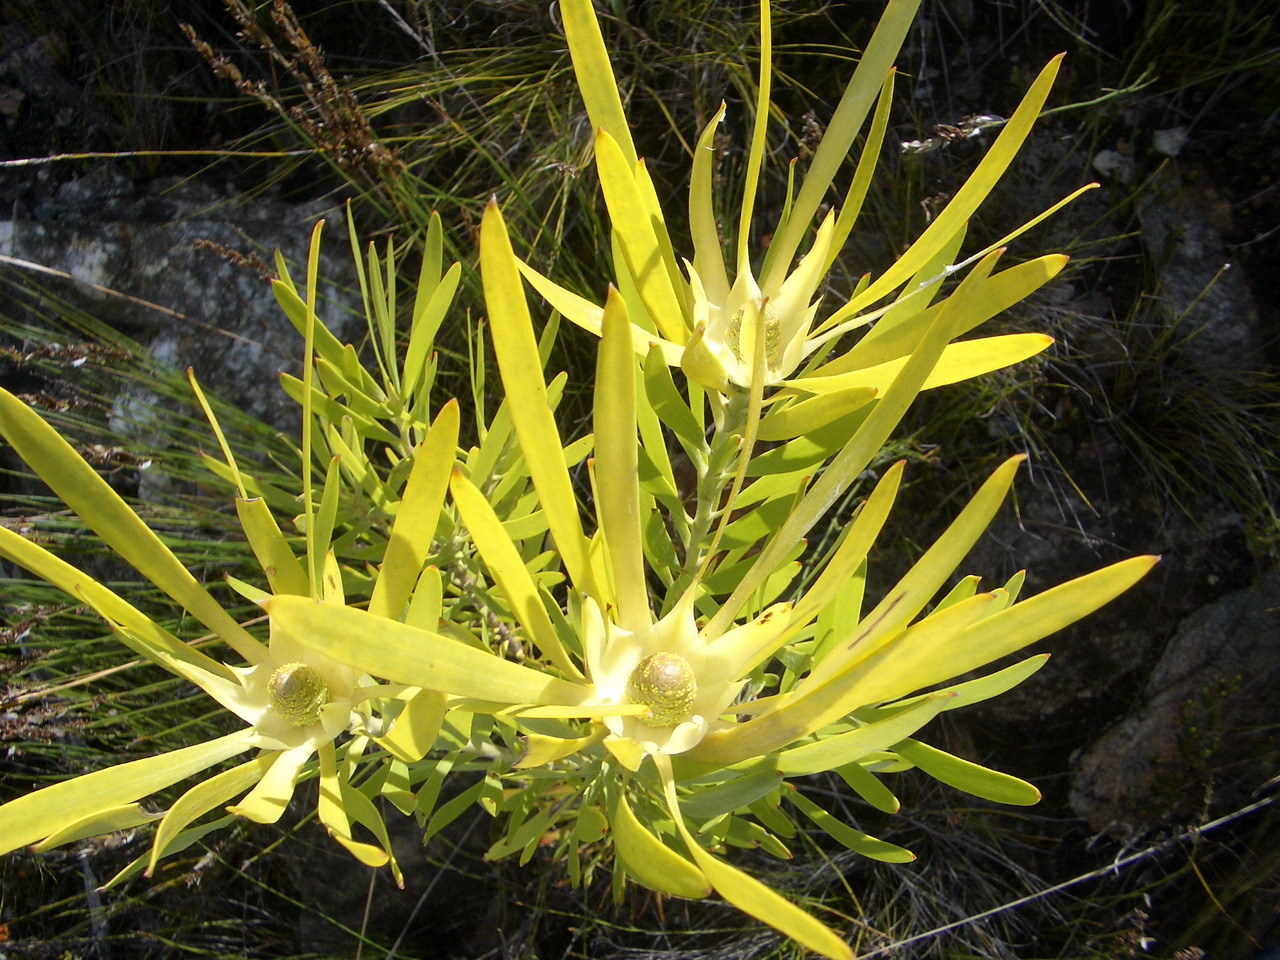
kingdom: Plantae
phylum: Tracheophyta
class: Magnoliopsida
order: Proteales
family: Proteaceae
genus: Leucadendron
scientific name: Leucadendron eucalyptifolium
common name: Gum-leaved conebush
